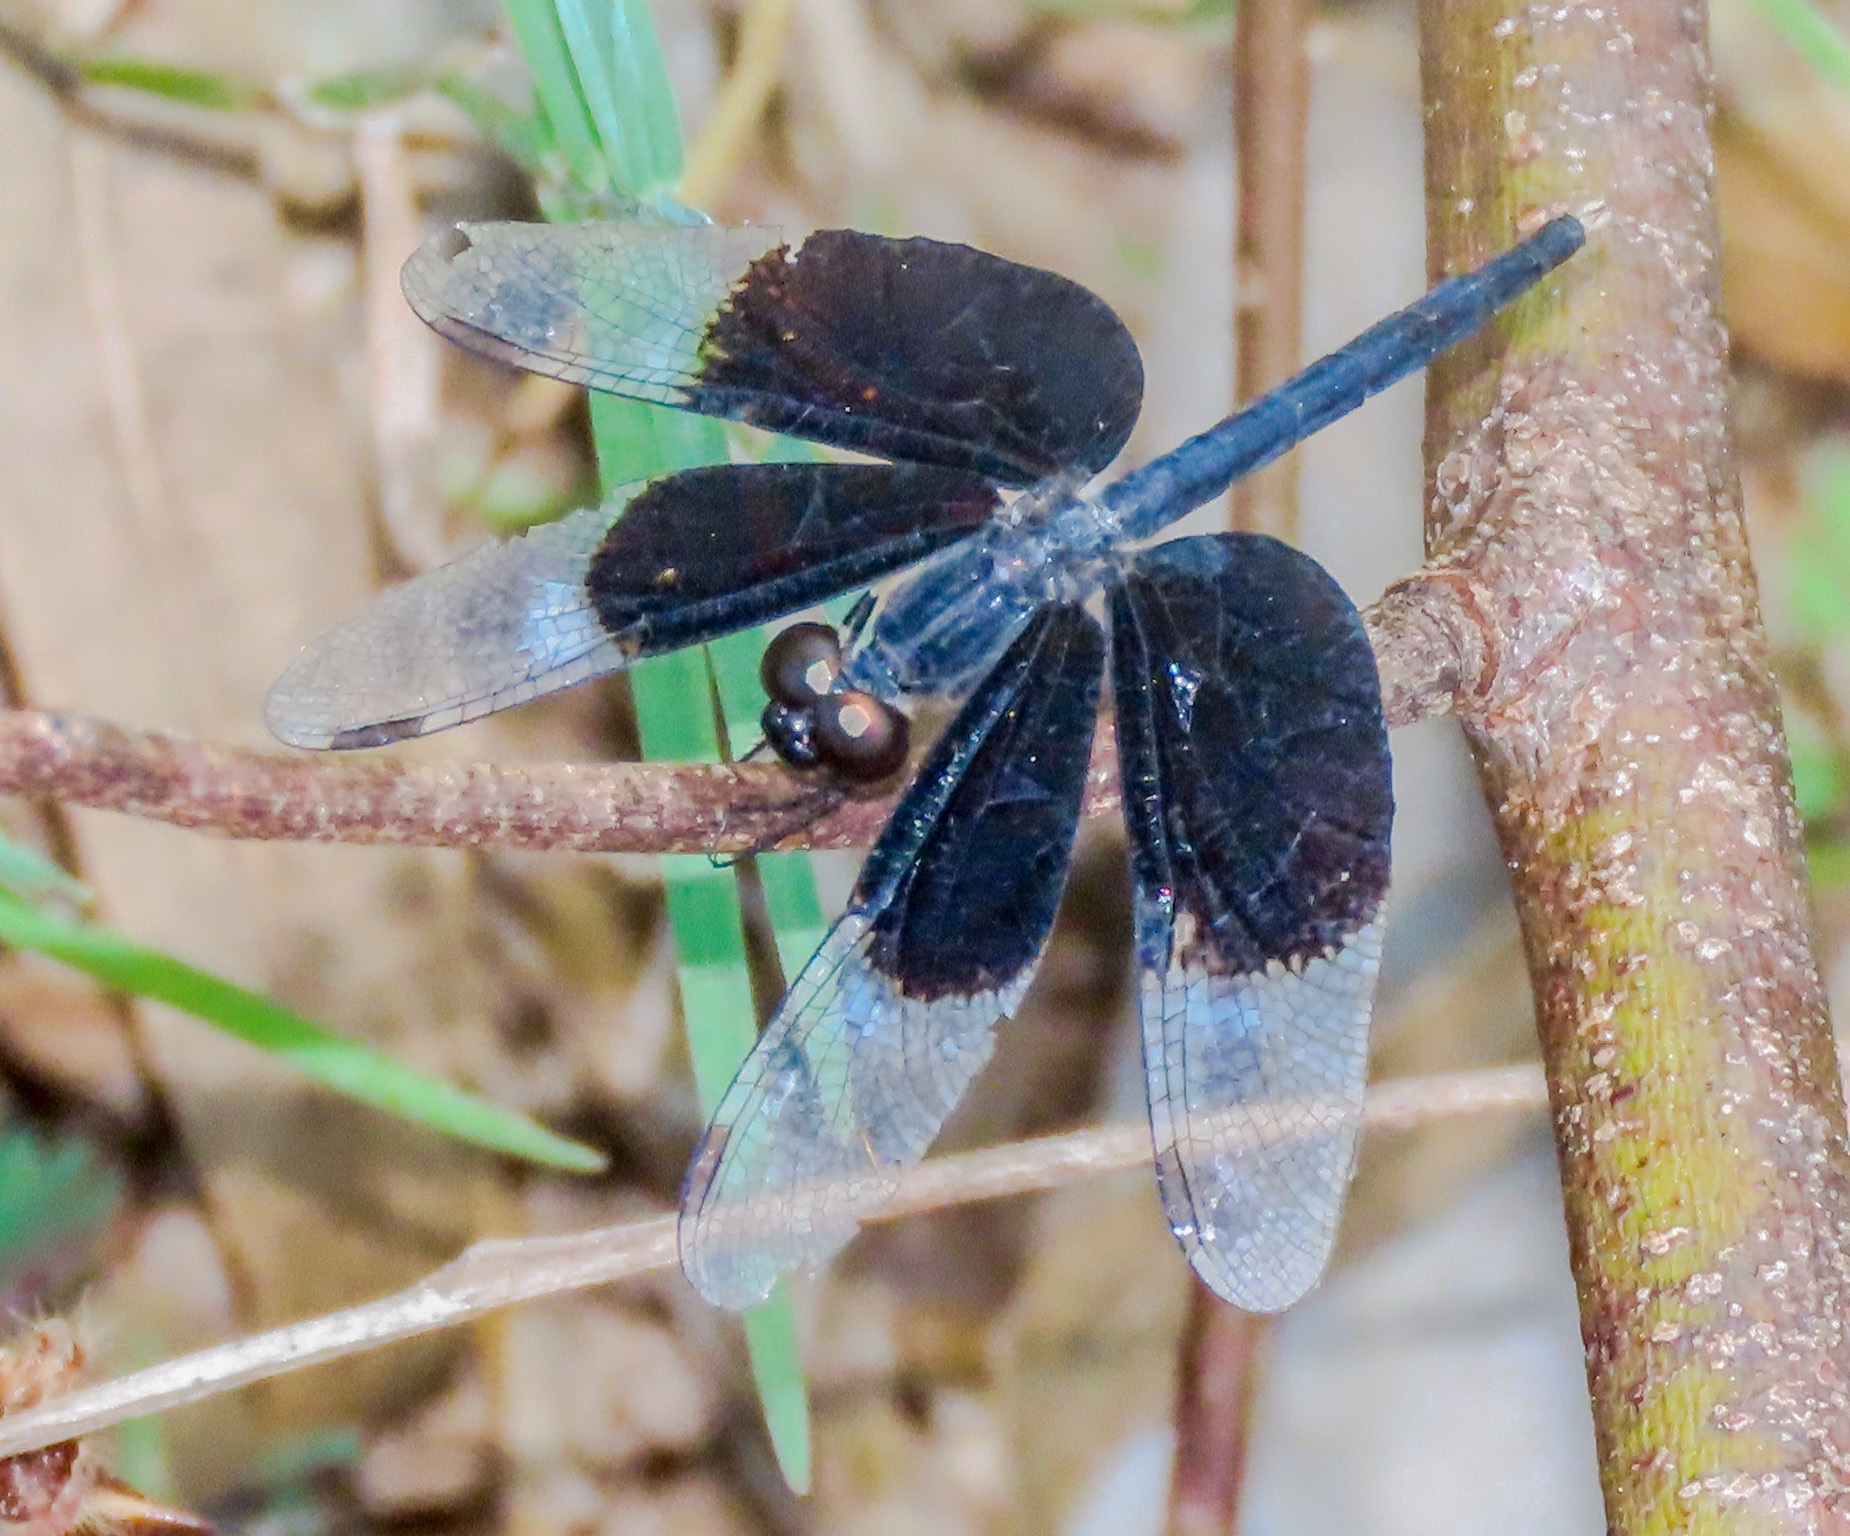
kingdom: Animalia
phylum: Arthropoda
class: Insecta
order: Odonata
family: Libellulidae
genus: Neurothemis
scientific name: Neurothemis tullia
